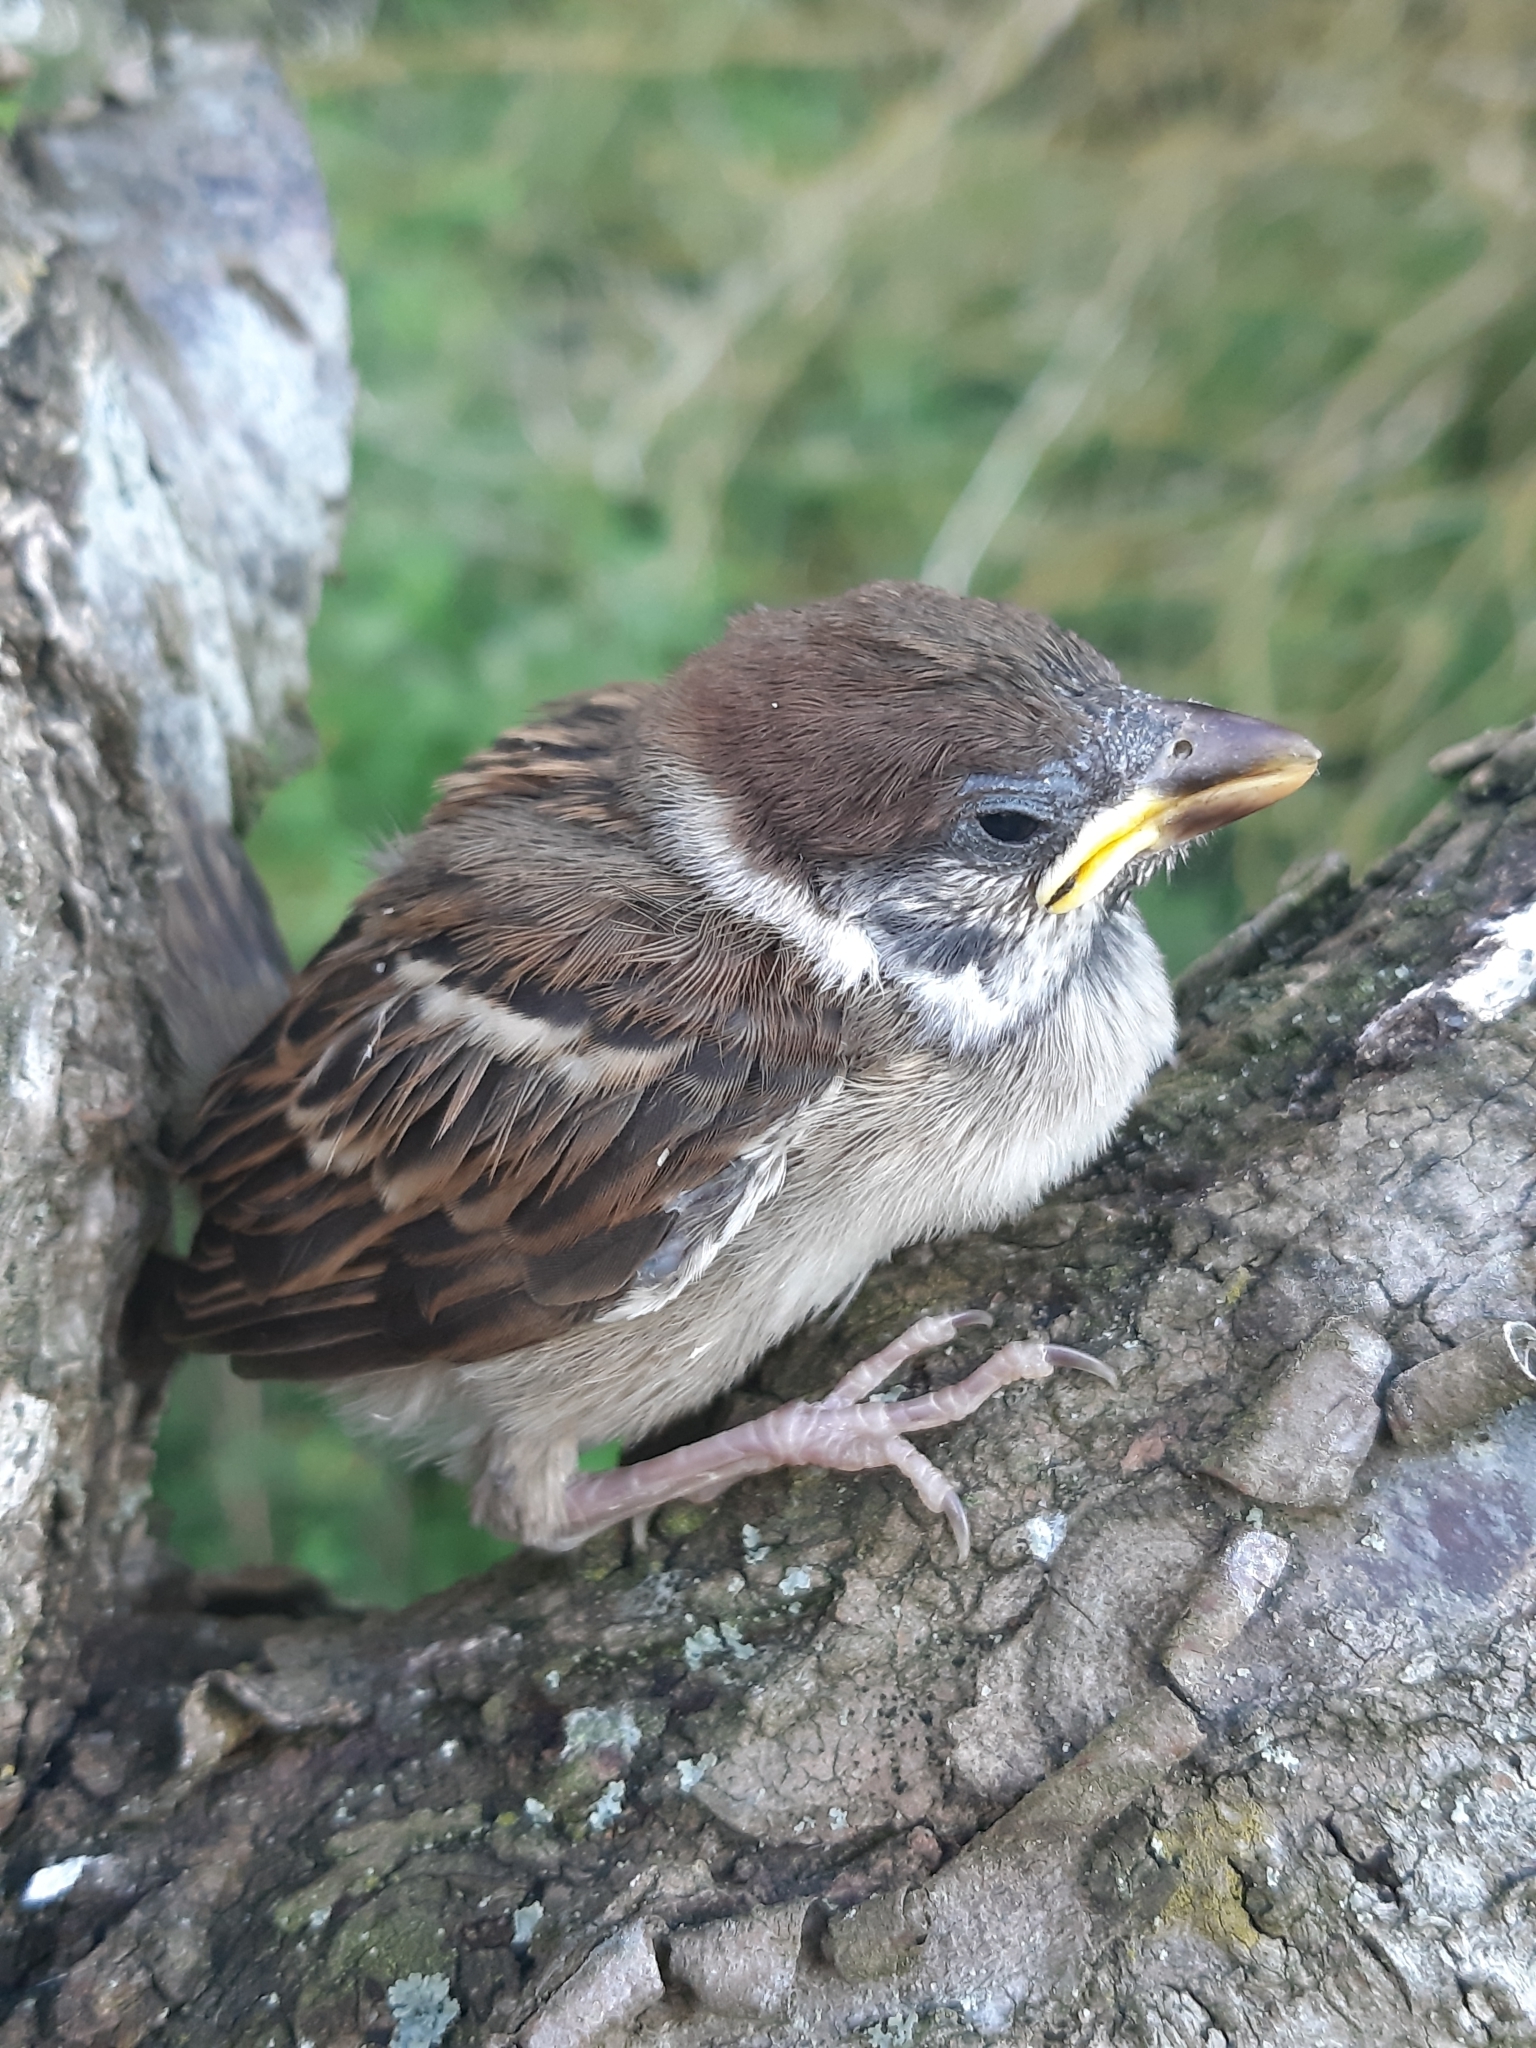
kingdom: Animalia
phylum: Chordata
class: Aves
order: Passeriformes
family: Passeridae
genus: Passer
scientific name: Passer montanus
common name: Eurasian tree sparrow
